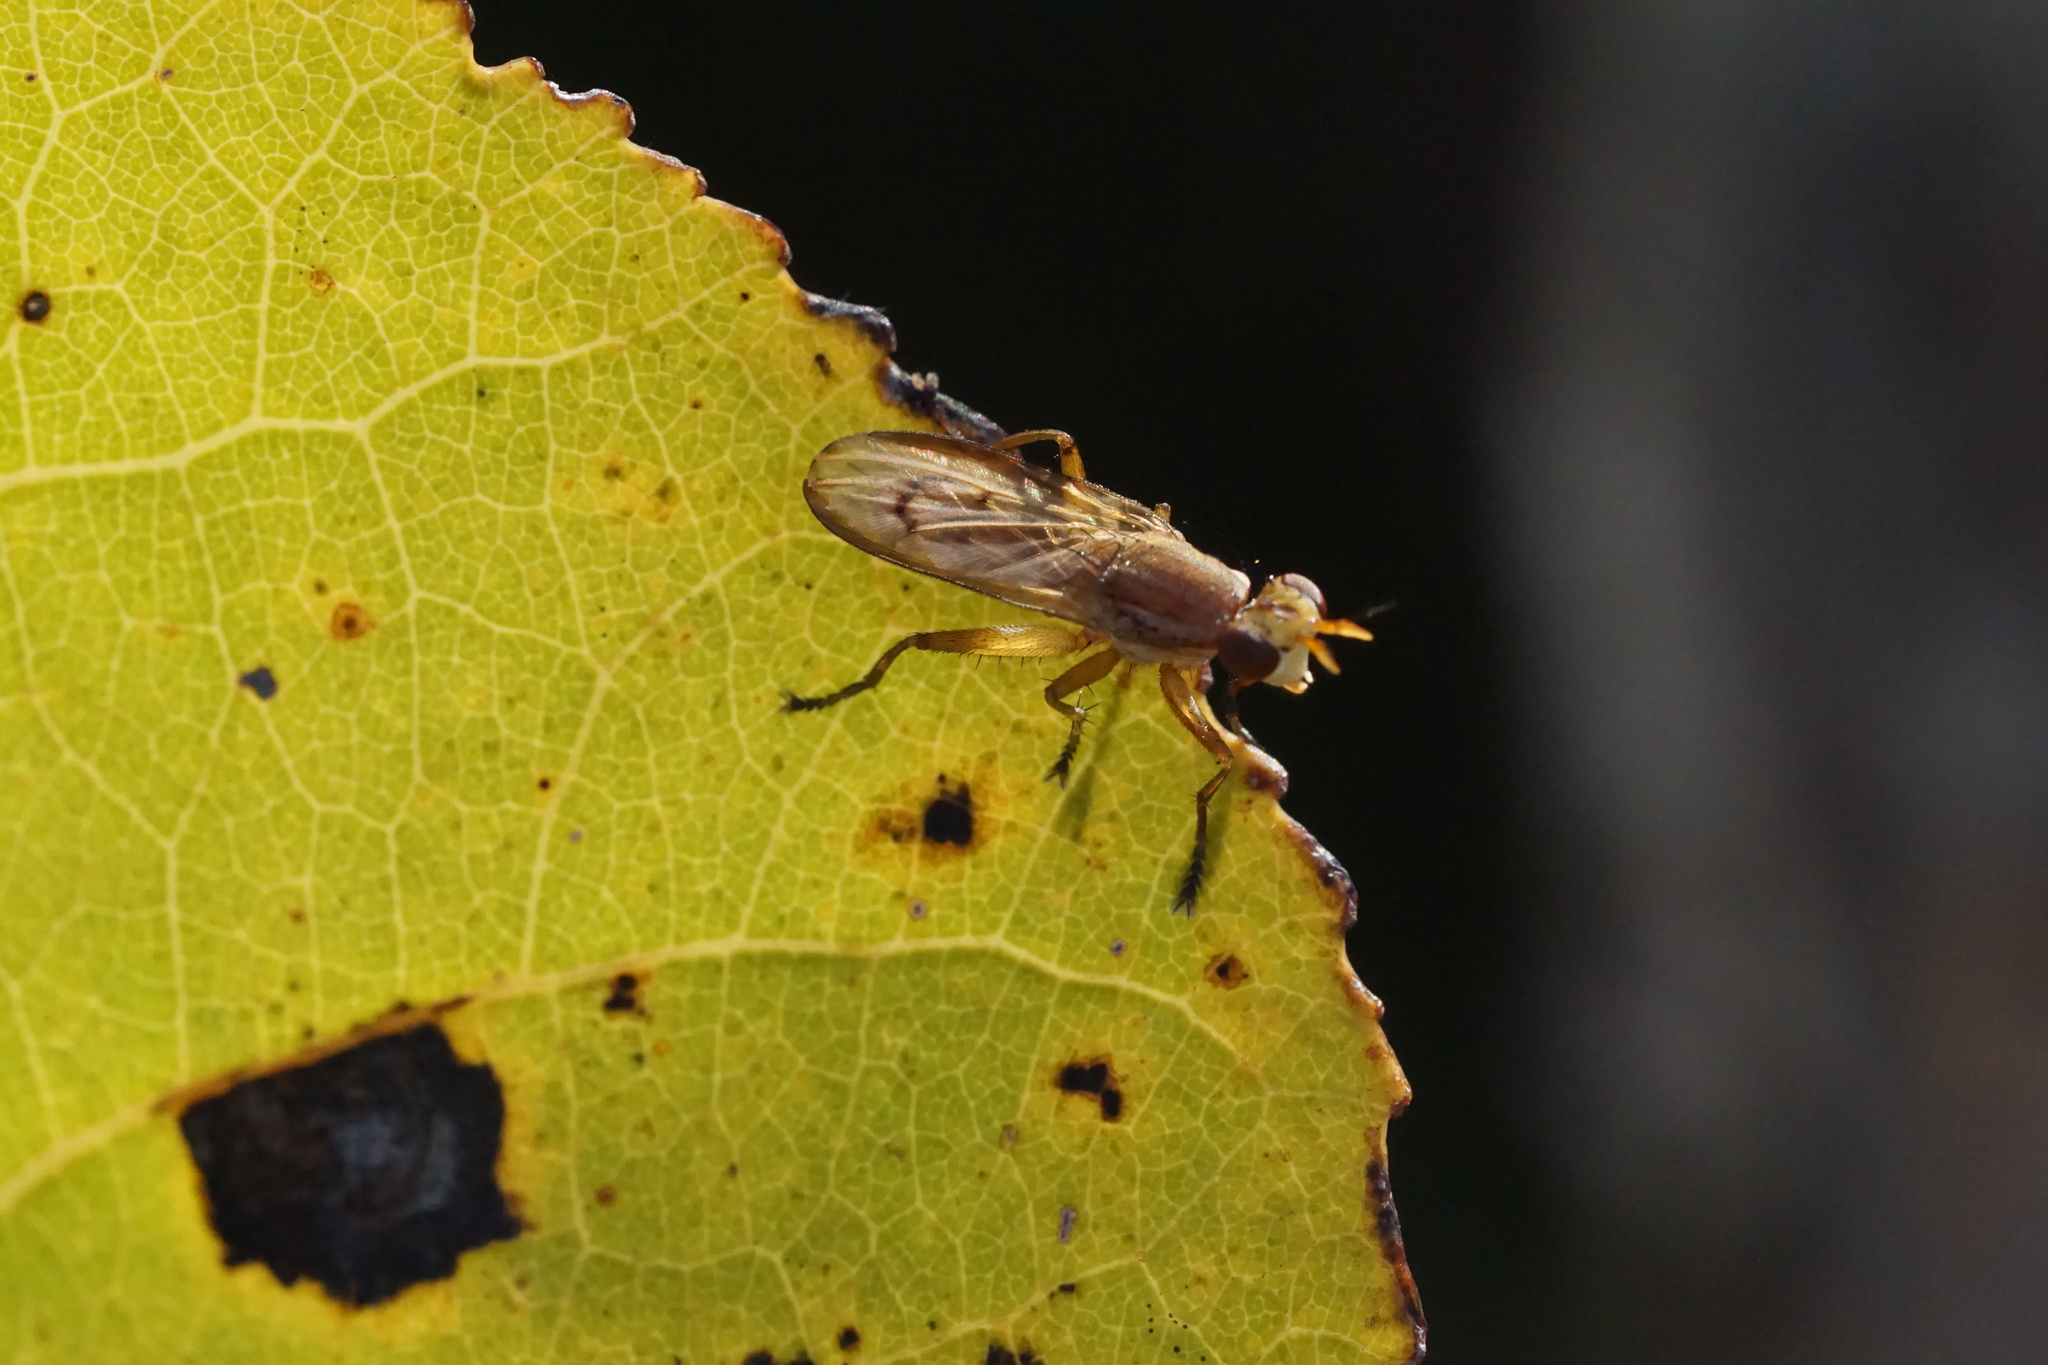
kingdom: Animalia
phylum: Arthropoda
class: Insecta
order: Diptera
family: Sciomyzidae
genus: Tetanocera
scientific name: Tetanocera
